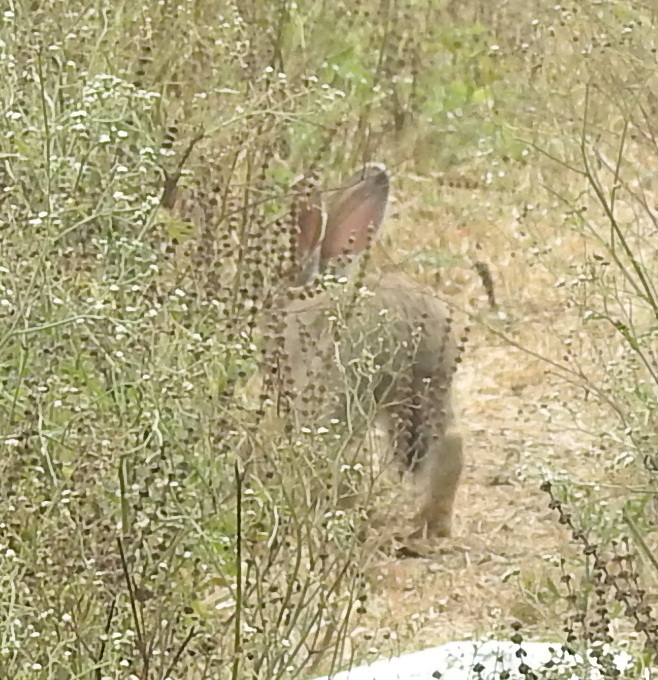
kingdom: Animalia
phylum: Chordata
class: Mammalia
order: Lagomorpha
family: Leporidae
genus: Lepus
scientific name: Lepus nigricollis
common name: Indian hare
